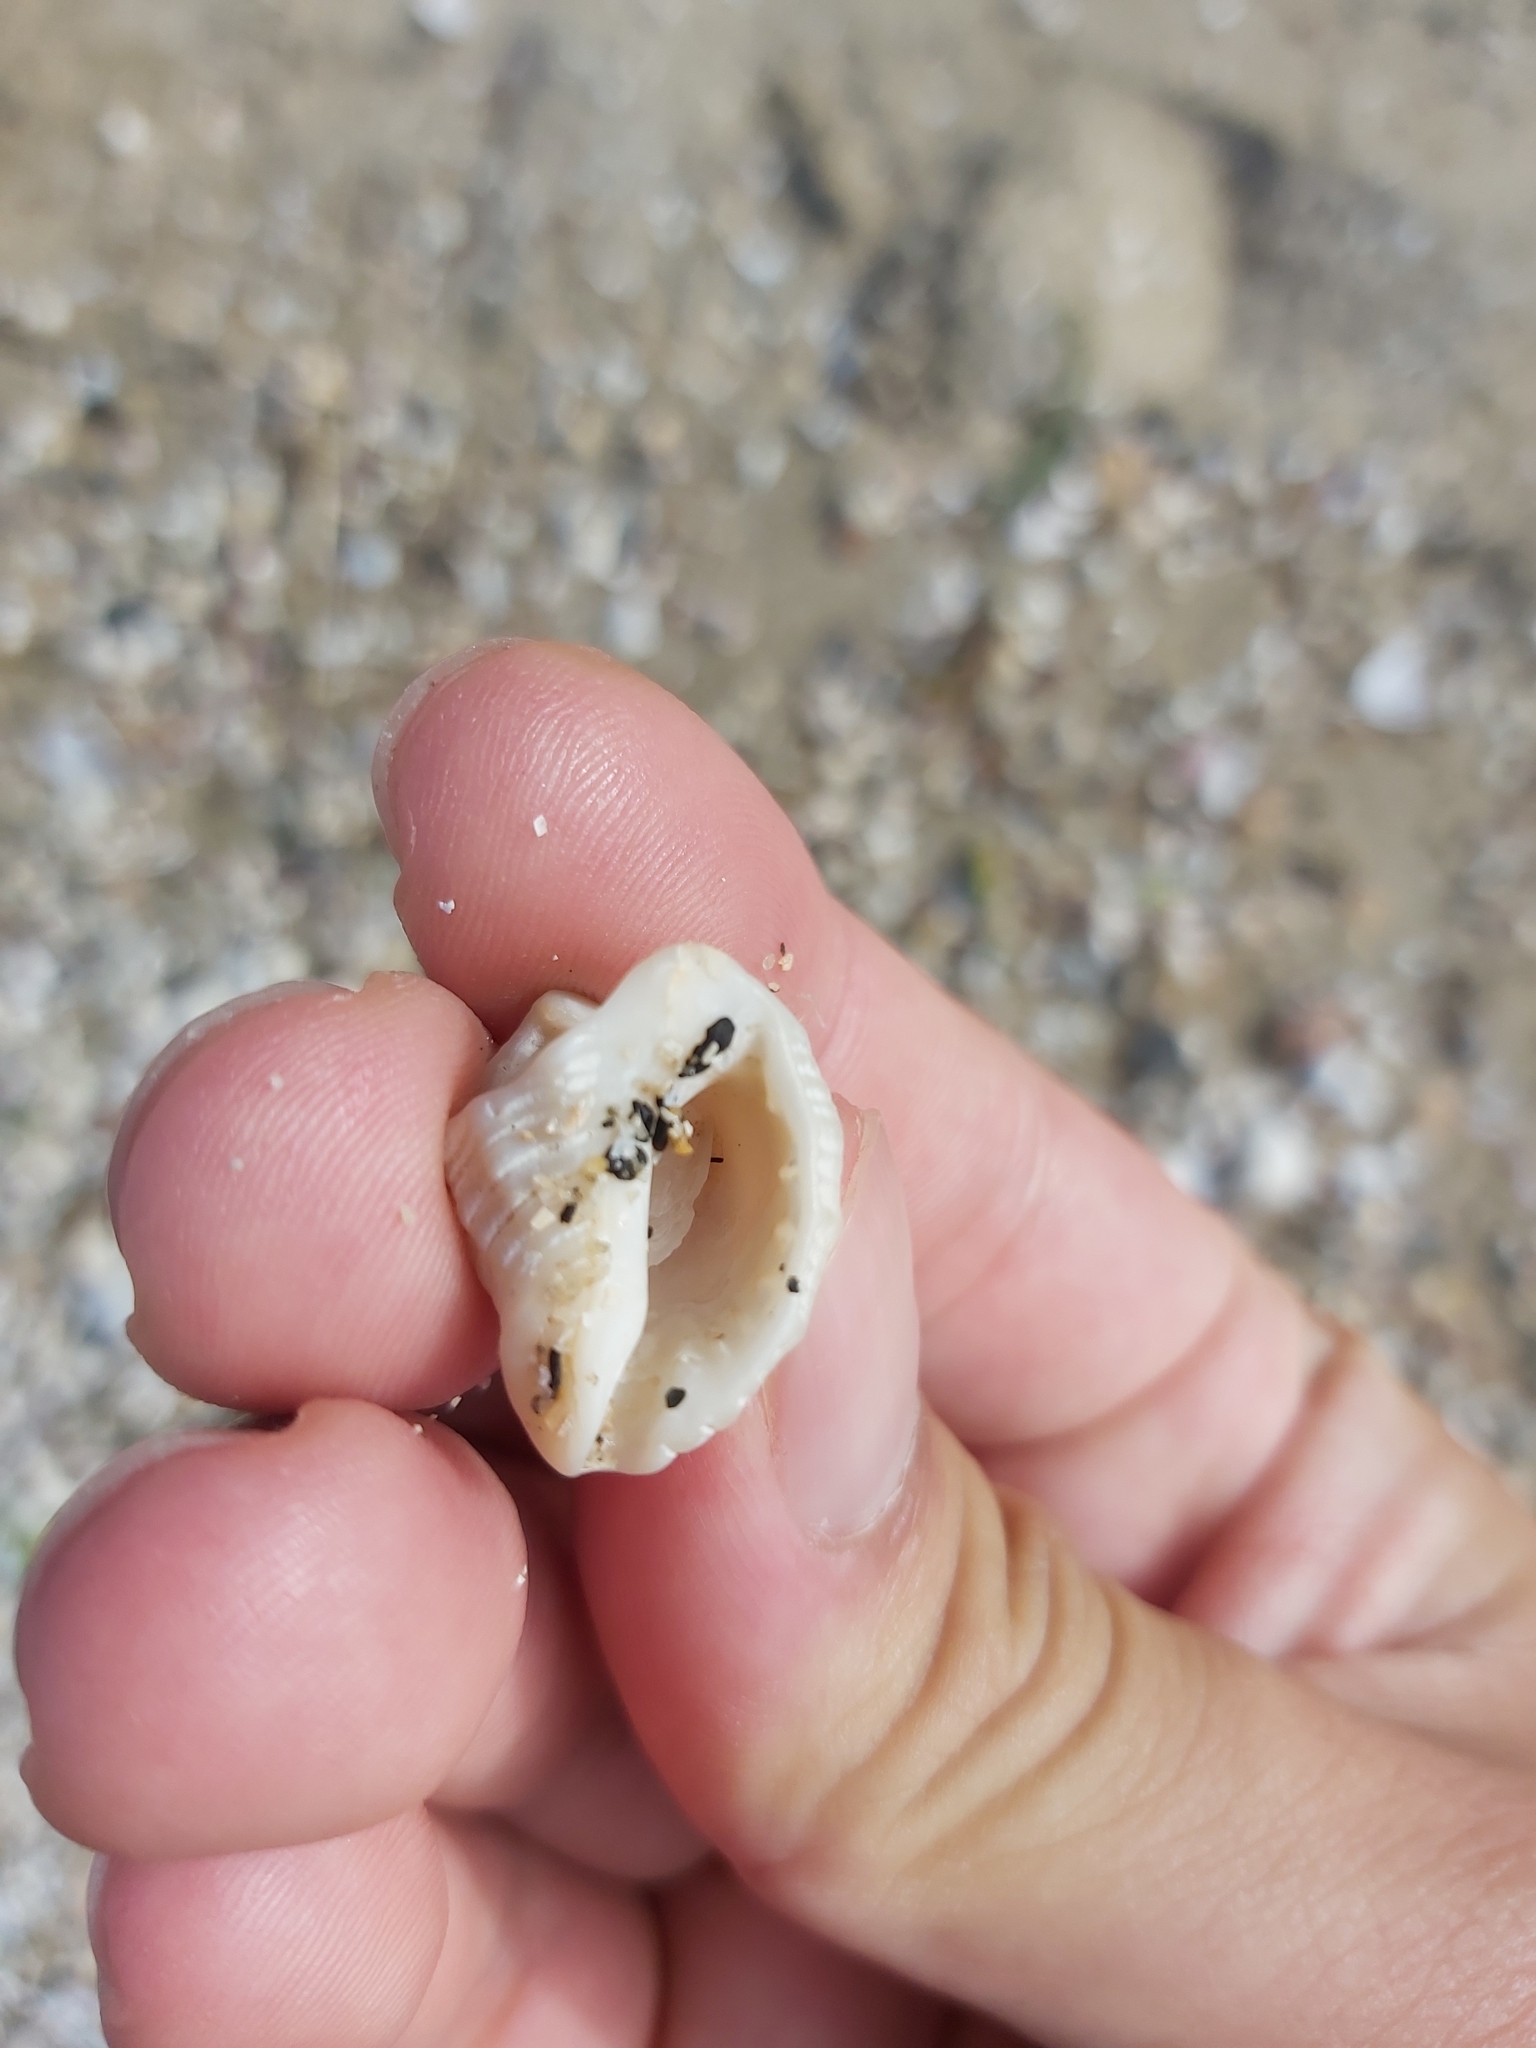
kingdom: Animalia
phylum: Mollusca
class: Gastropoda
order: Neogastropoda
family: Muricidae
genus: Cronia
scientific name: Cronia aurantiaca
